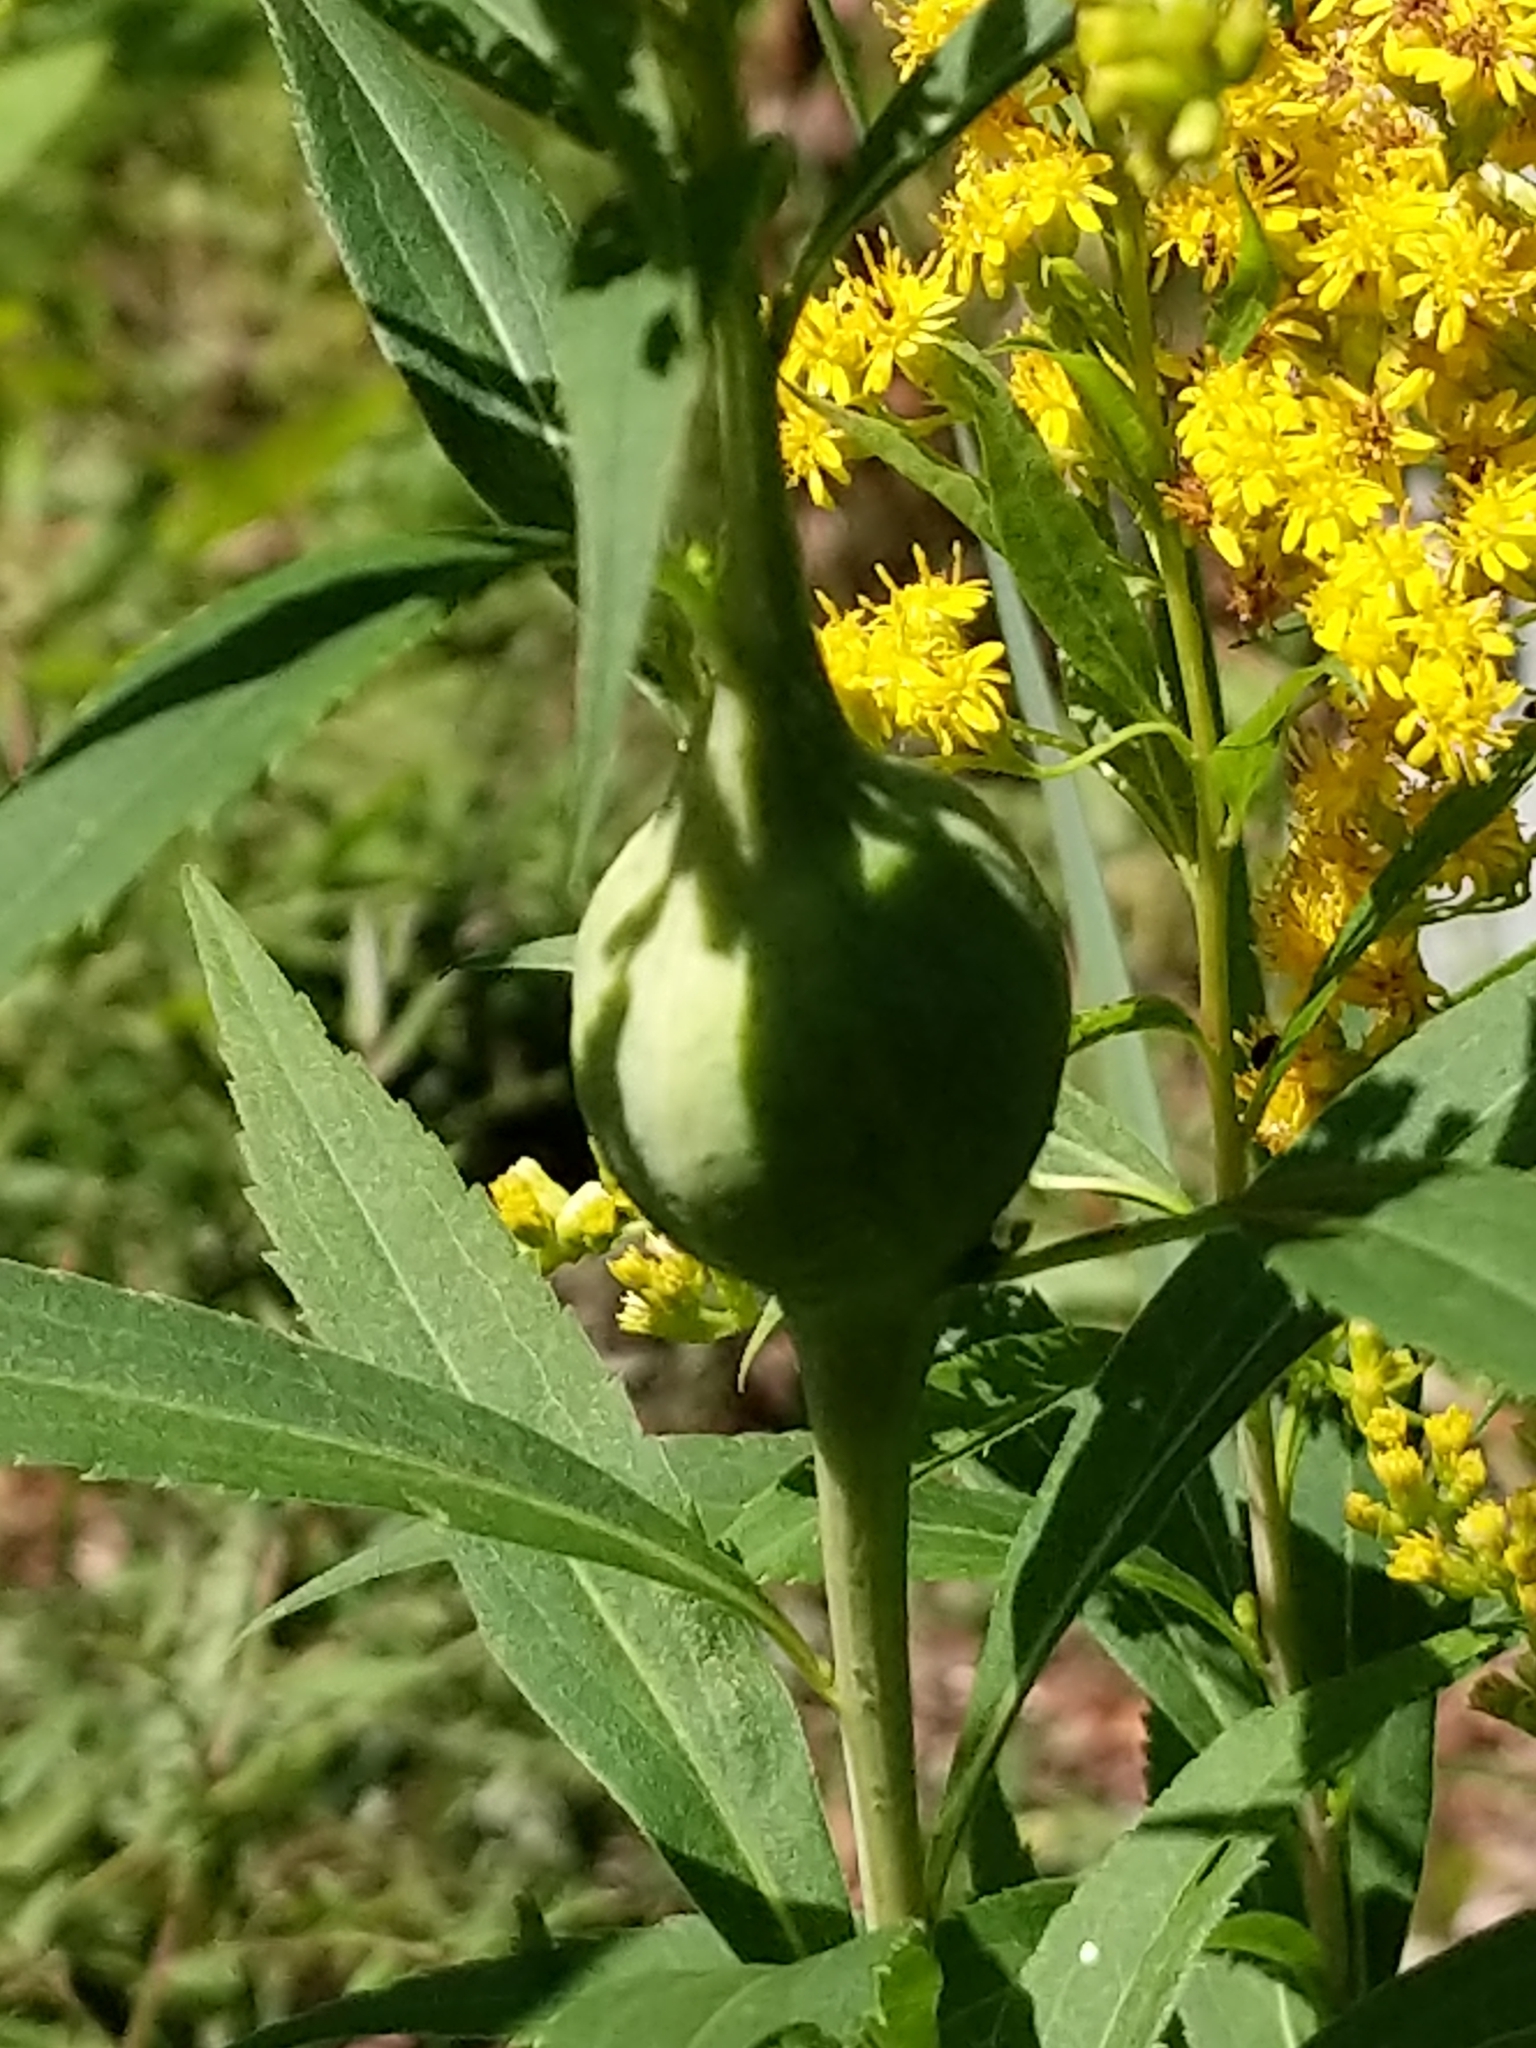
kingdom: Animalia
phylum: Arthropoda
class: Insecta
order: Diptera
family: Tephritidae
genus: Eurosta
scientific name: Eurosta solidaginis
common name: Goldenrod gall fly
